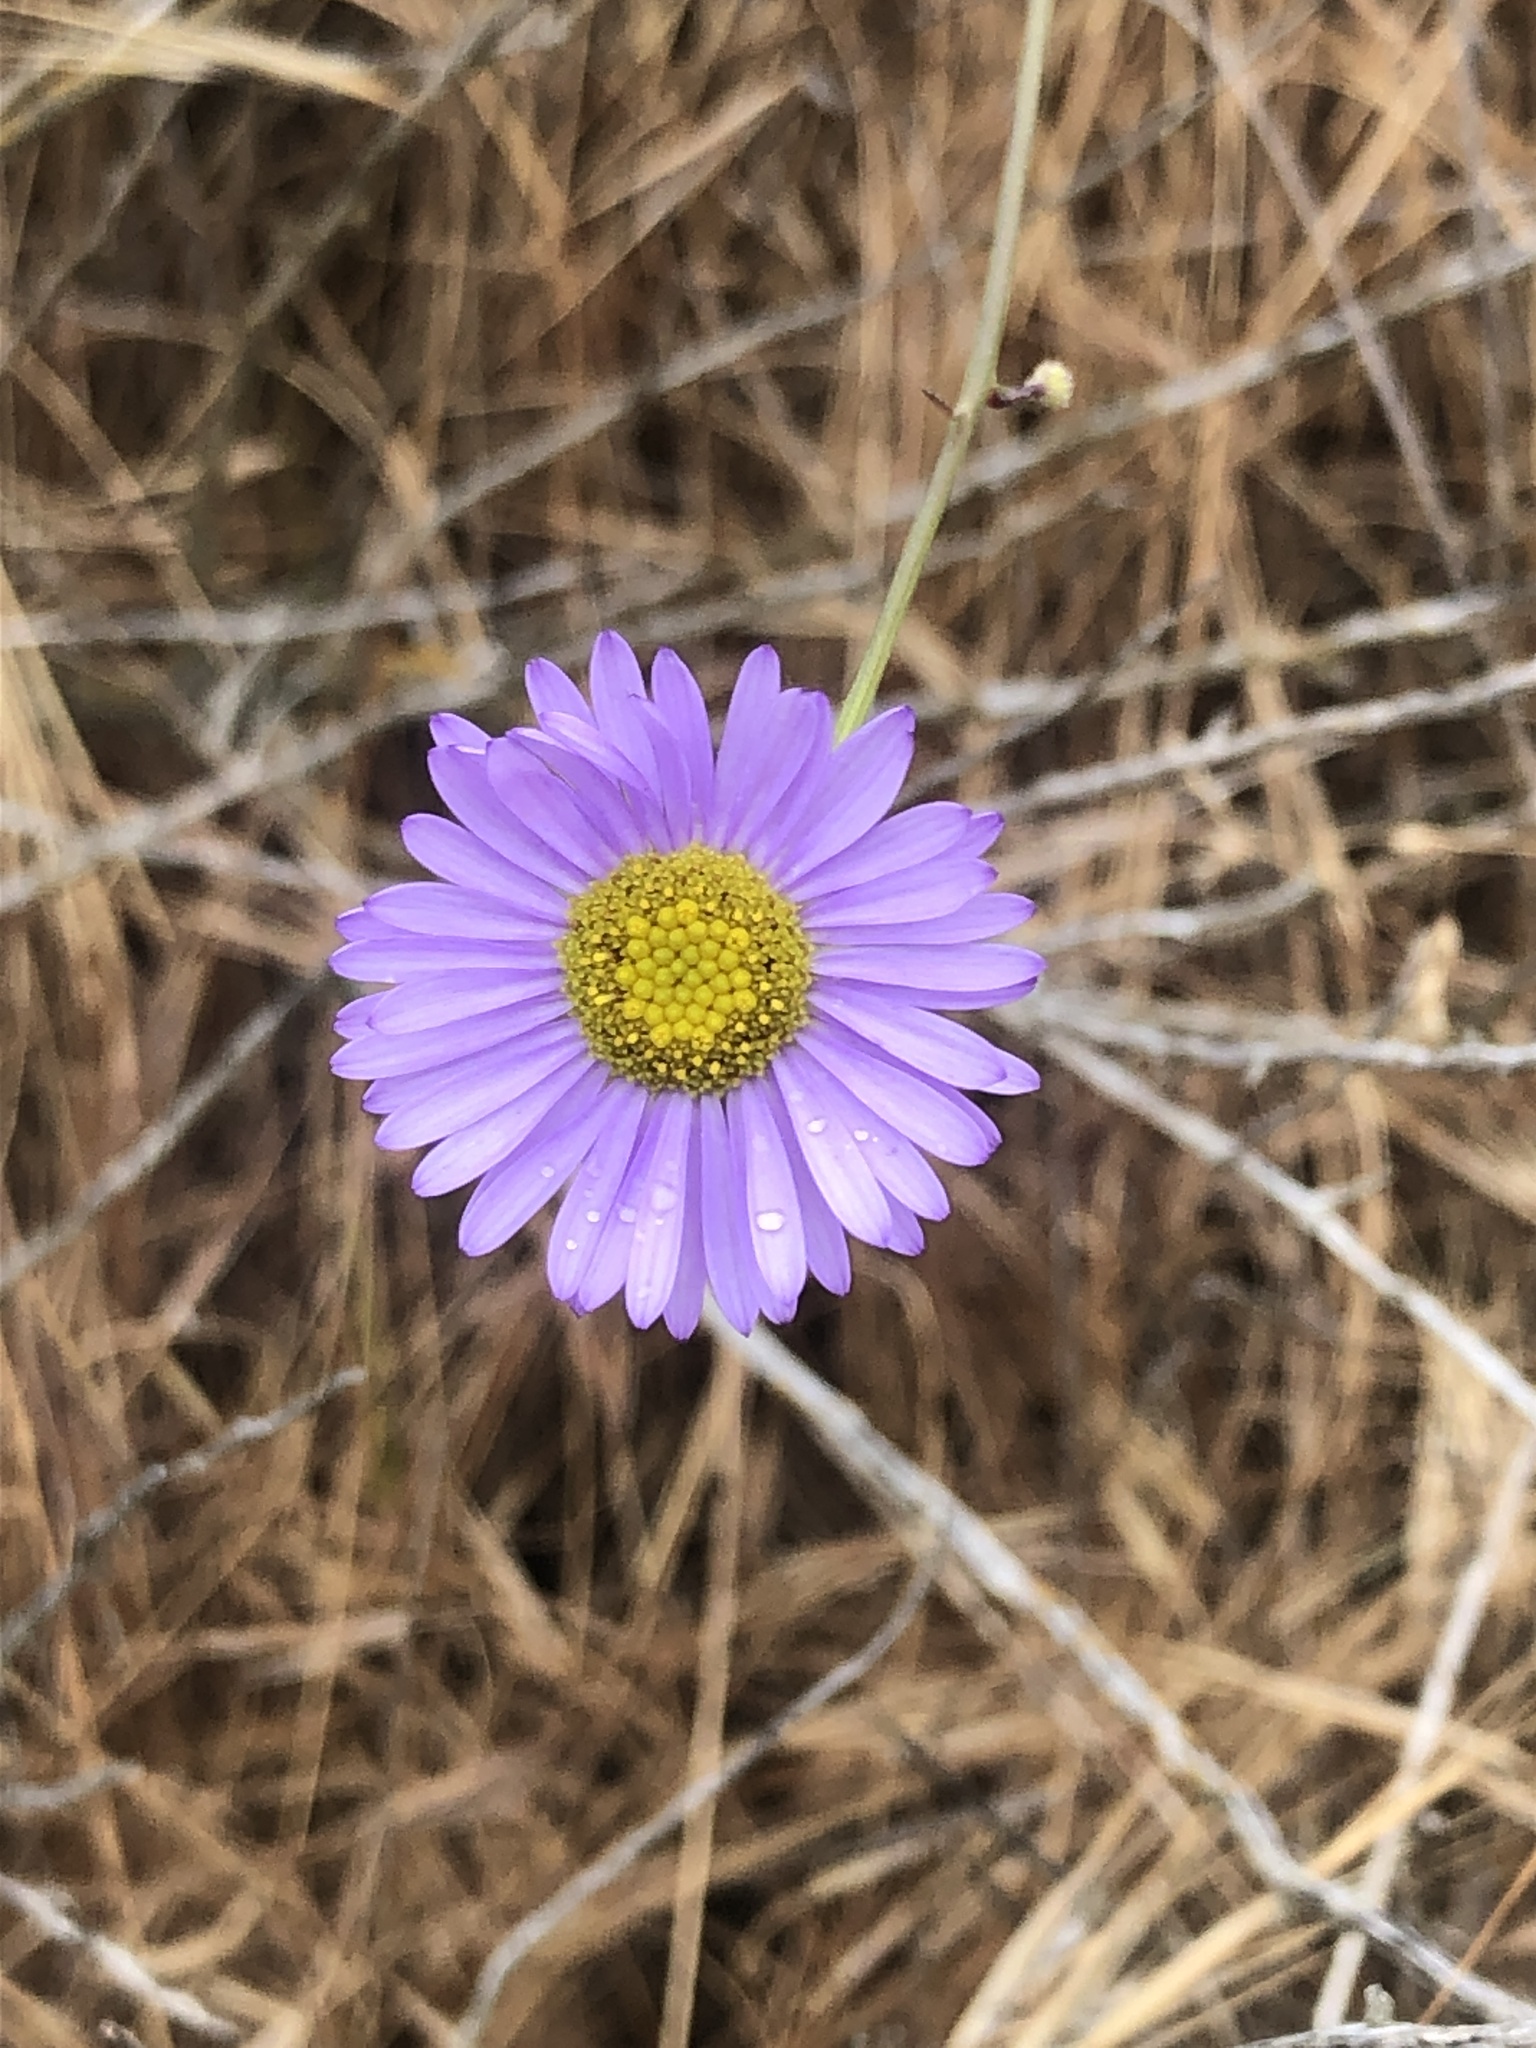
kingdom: Plantae
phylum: Tracheophyta
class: Magnoliopsida
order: Asterales
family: Asteraceae
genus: Erigeron
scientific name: Erigeron foliosus
